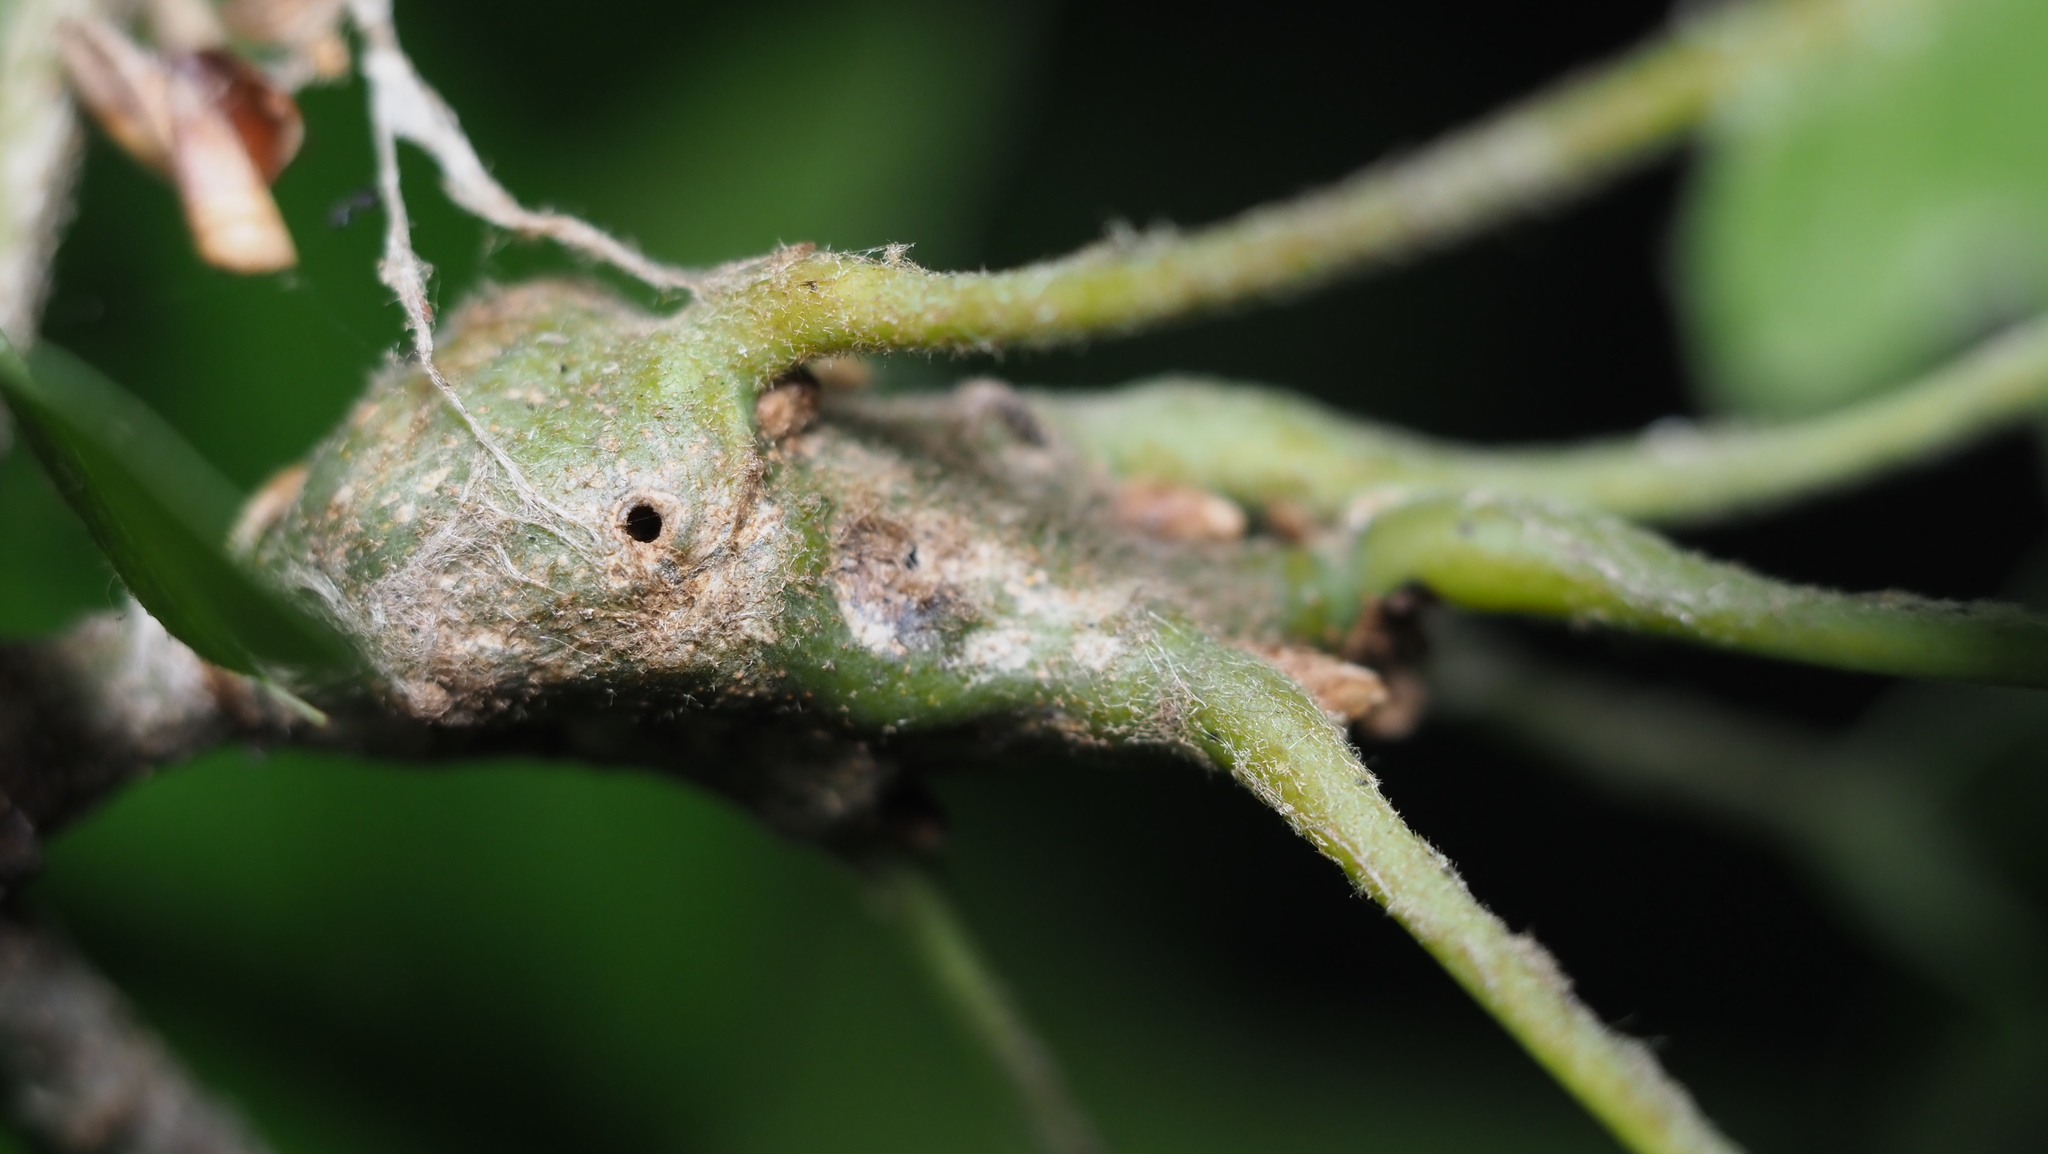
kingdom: Animalia
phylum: Arthropoda
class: Insecta
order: Hymenoptera
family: Cynipidae
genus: Callirhytis
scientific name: Callirhytis
